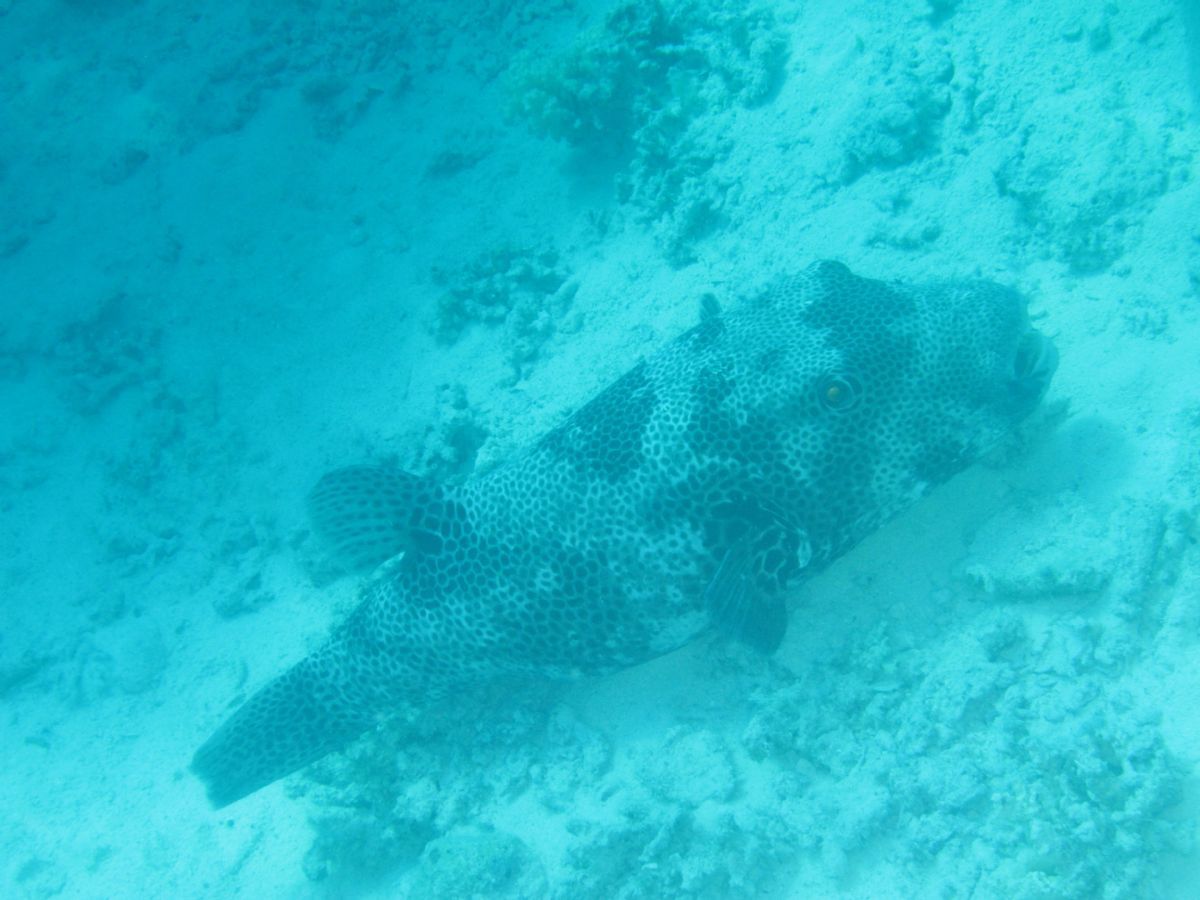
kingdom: Animalia
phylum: Chordata
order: Tetraodontiformes
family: Tetraodontidae
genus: Arothron
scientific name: Arothron stellatus
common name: Star blaasop
